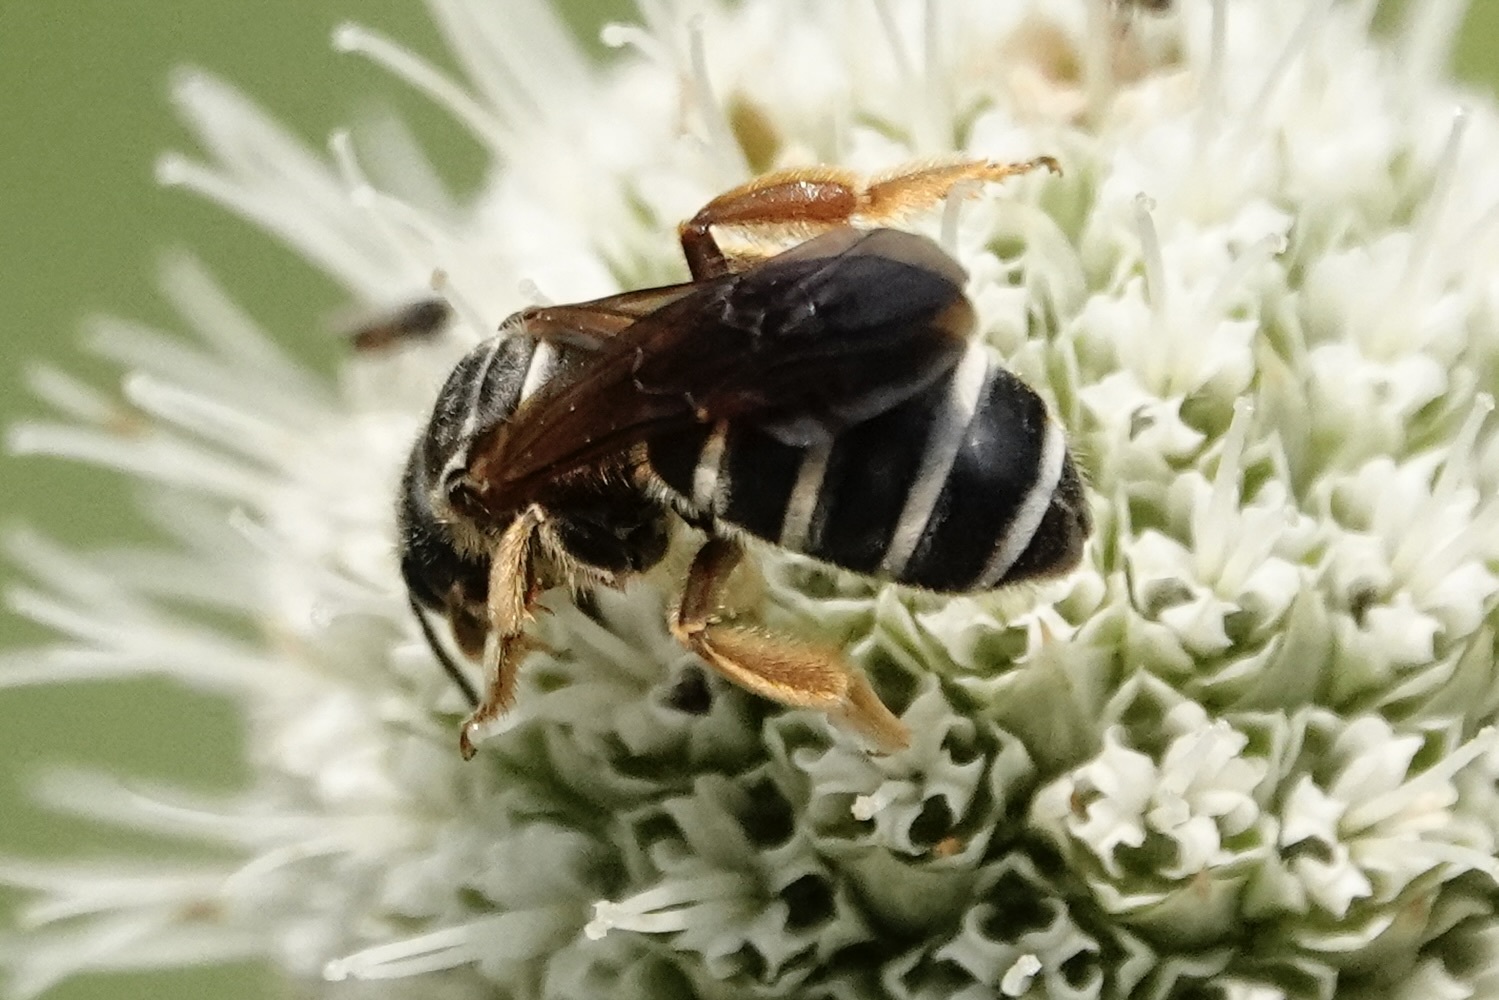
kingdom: Animalia
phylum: Arthropoda
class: Insecta
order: Hymenoptera
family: Halictidae
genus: Halictus
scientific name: Halictus parallelus
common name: Parallel-striped sweat bee
